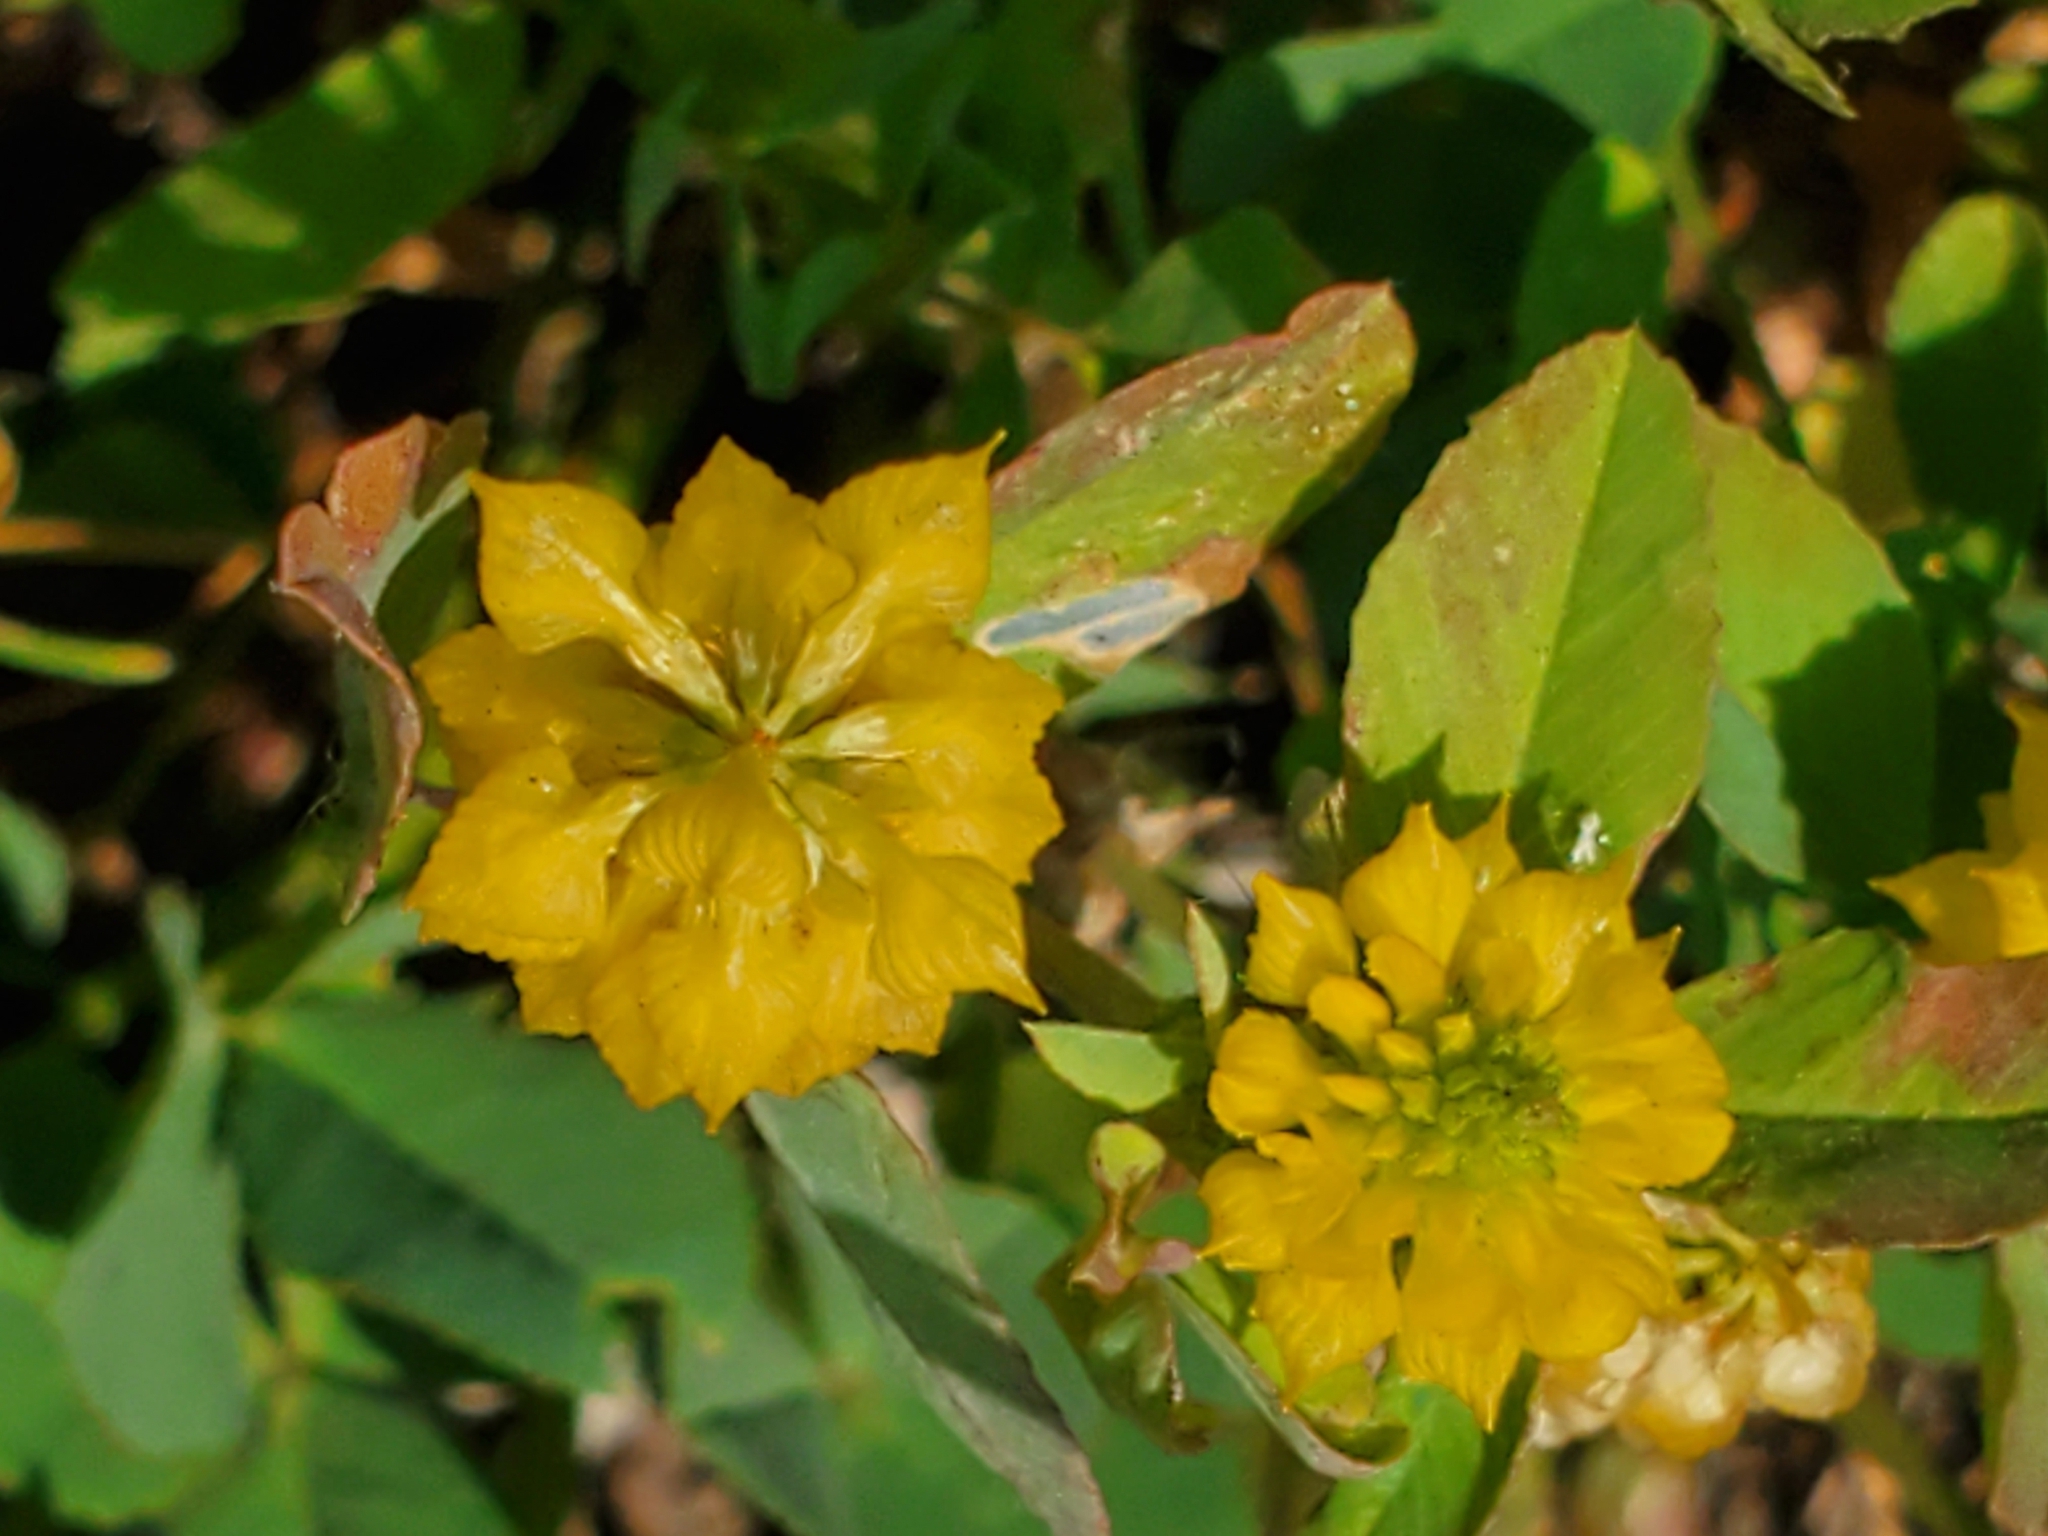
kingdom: Plantae
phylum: Tracheophyta
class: Magnoliopsida
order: Fabales
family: Fabaceae
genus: Trifolium
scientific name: Trifolium campestre
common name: Field clover
